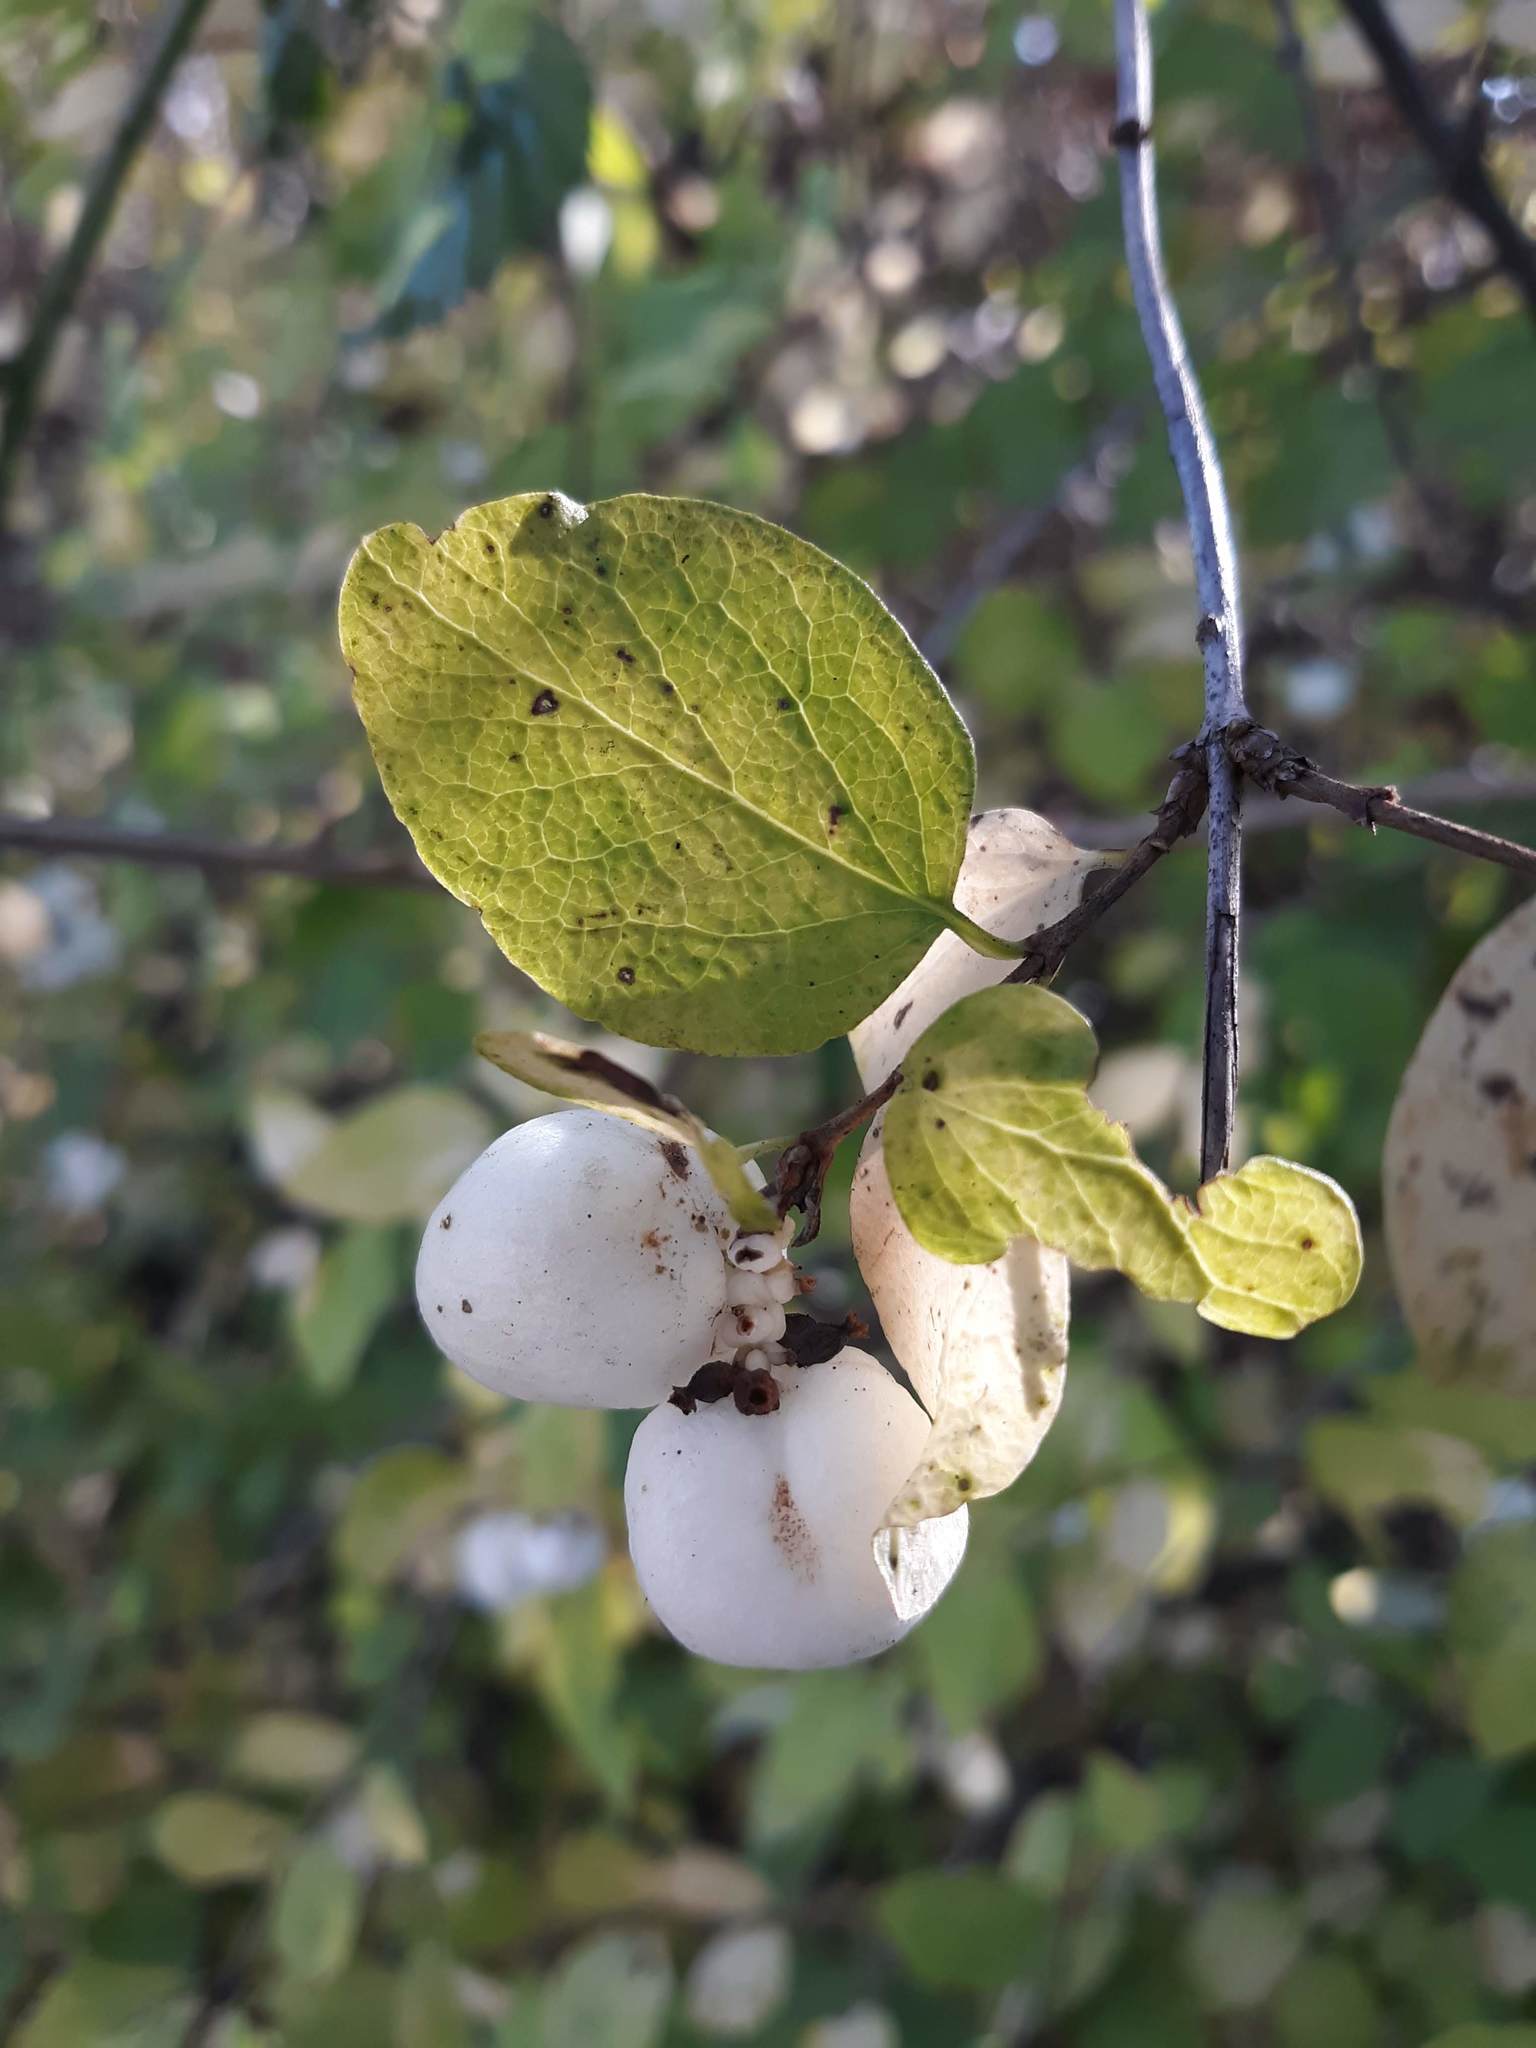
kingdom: Plantae
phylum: Tracheophyta
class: Magnoliopsida
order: Dipsacales
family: Caprifoliaceae
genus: Symphoricarpos
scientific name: Symphoricarpos albus
